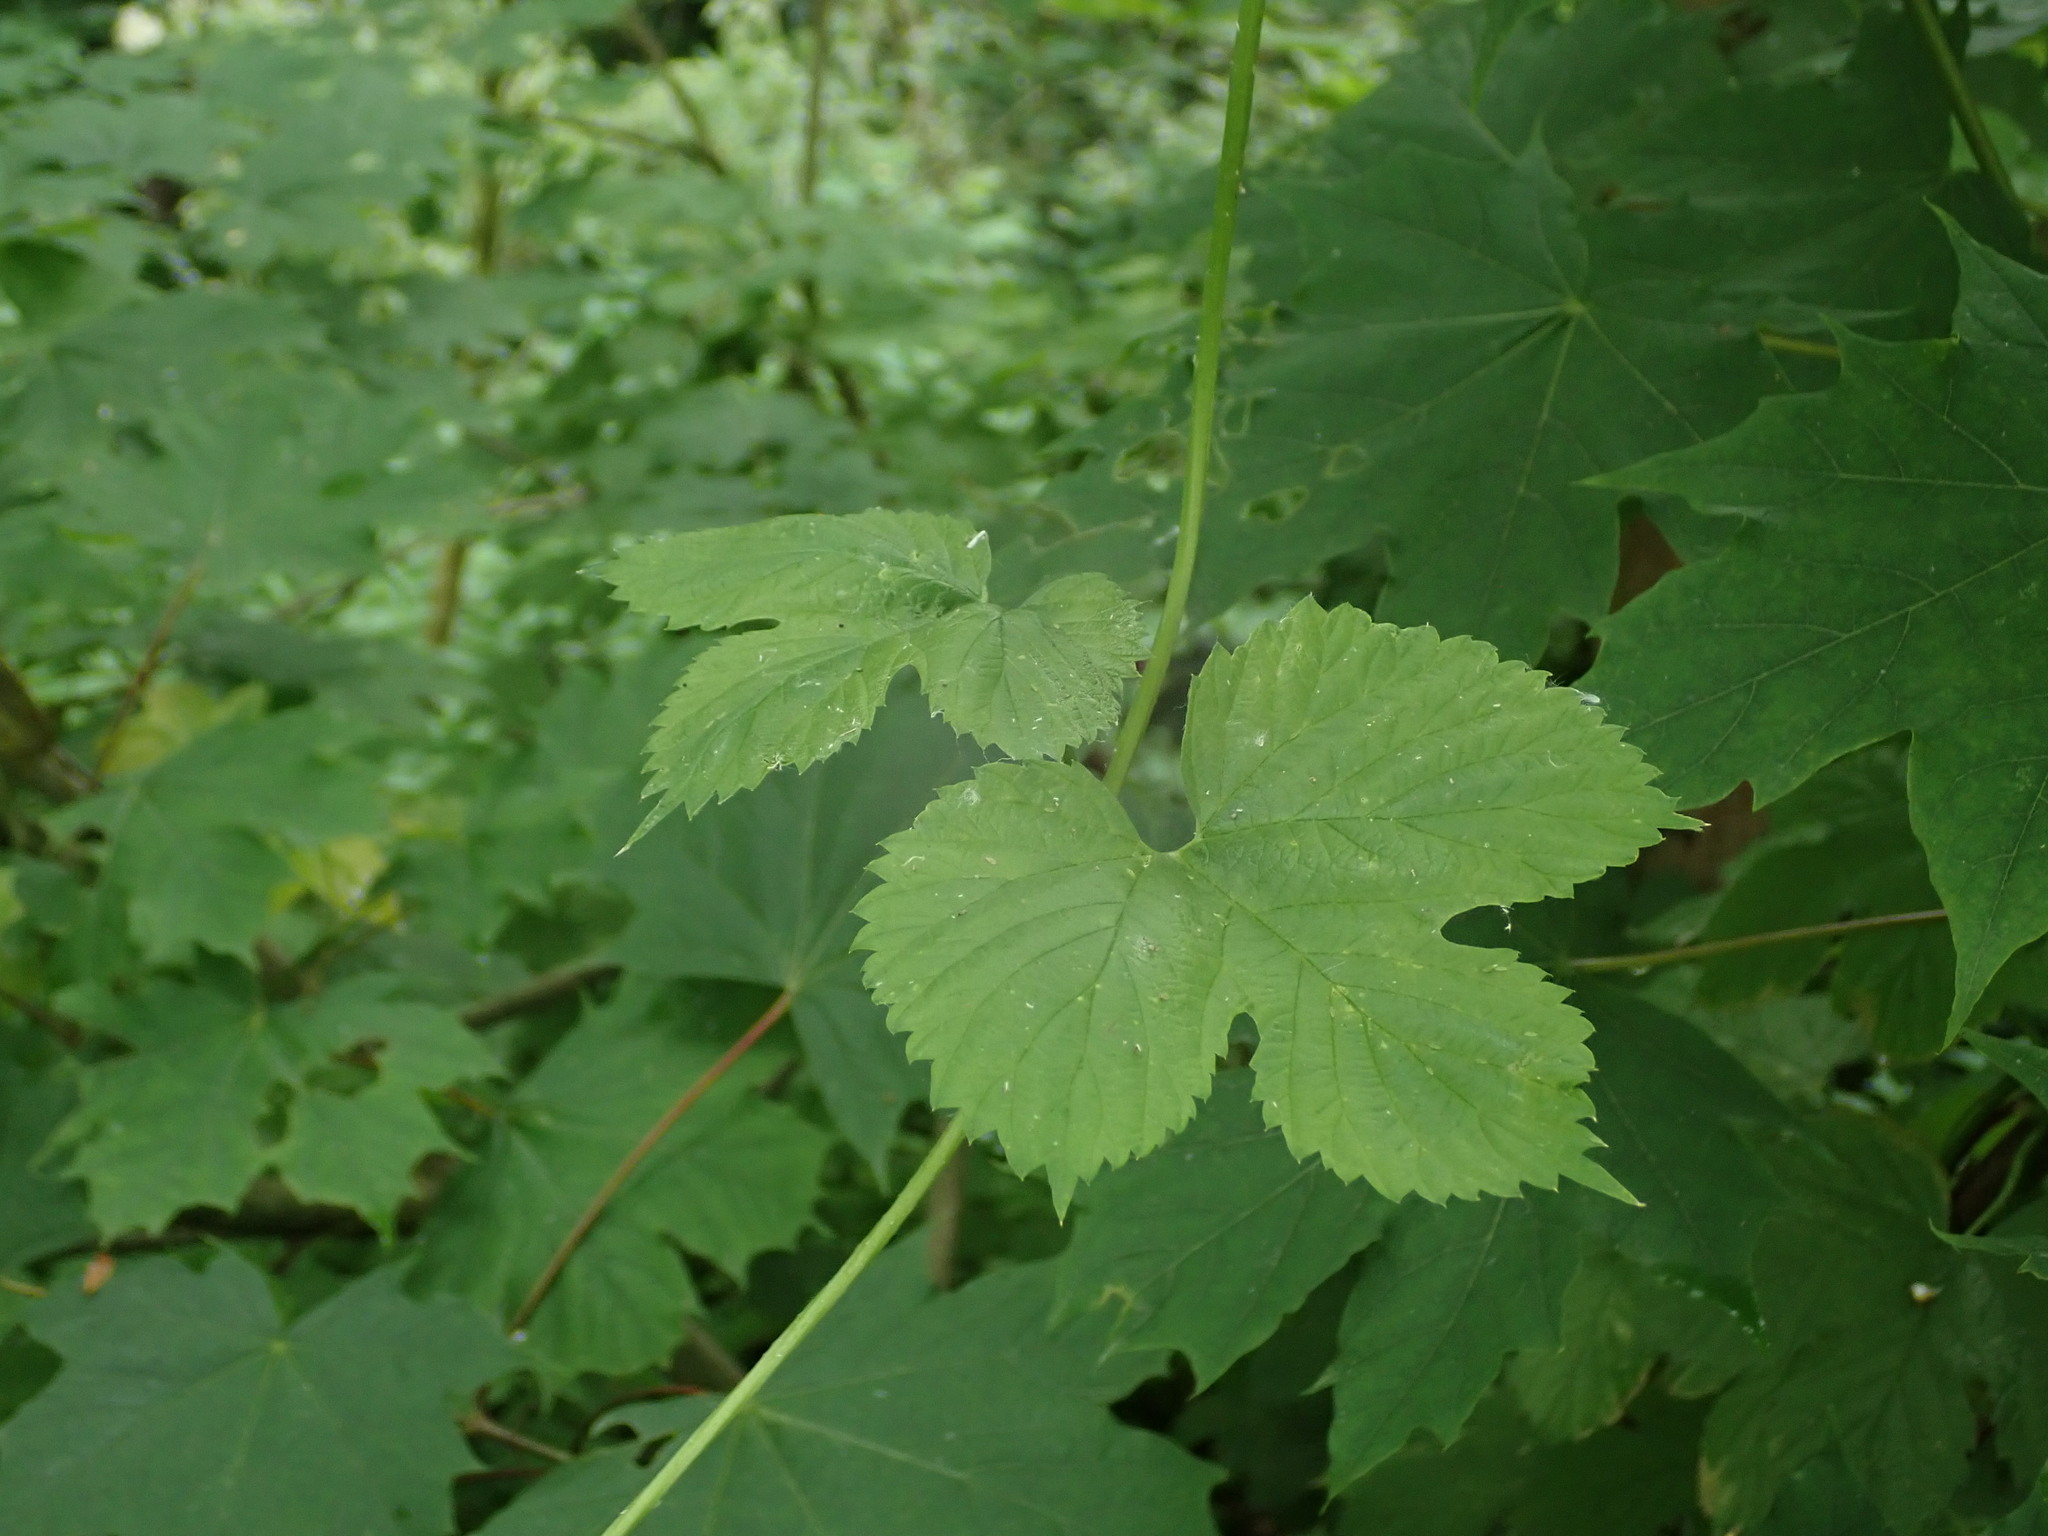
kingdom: Plantae
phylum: Tracheophyta
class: Magnoliopsida
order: Rosales
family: Cannabaceae
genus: Humulus
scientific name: Humulus lupulus
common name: Hop
